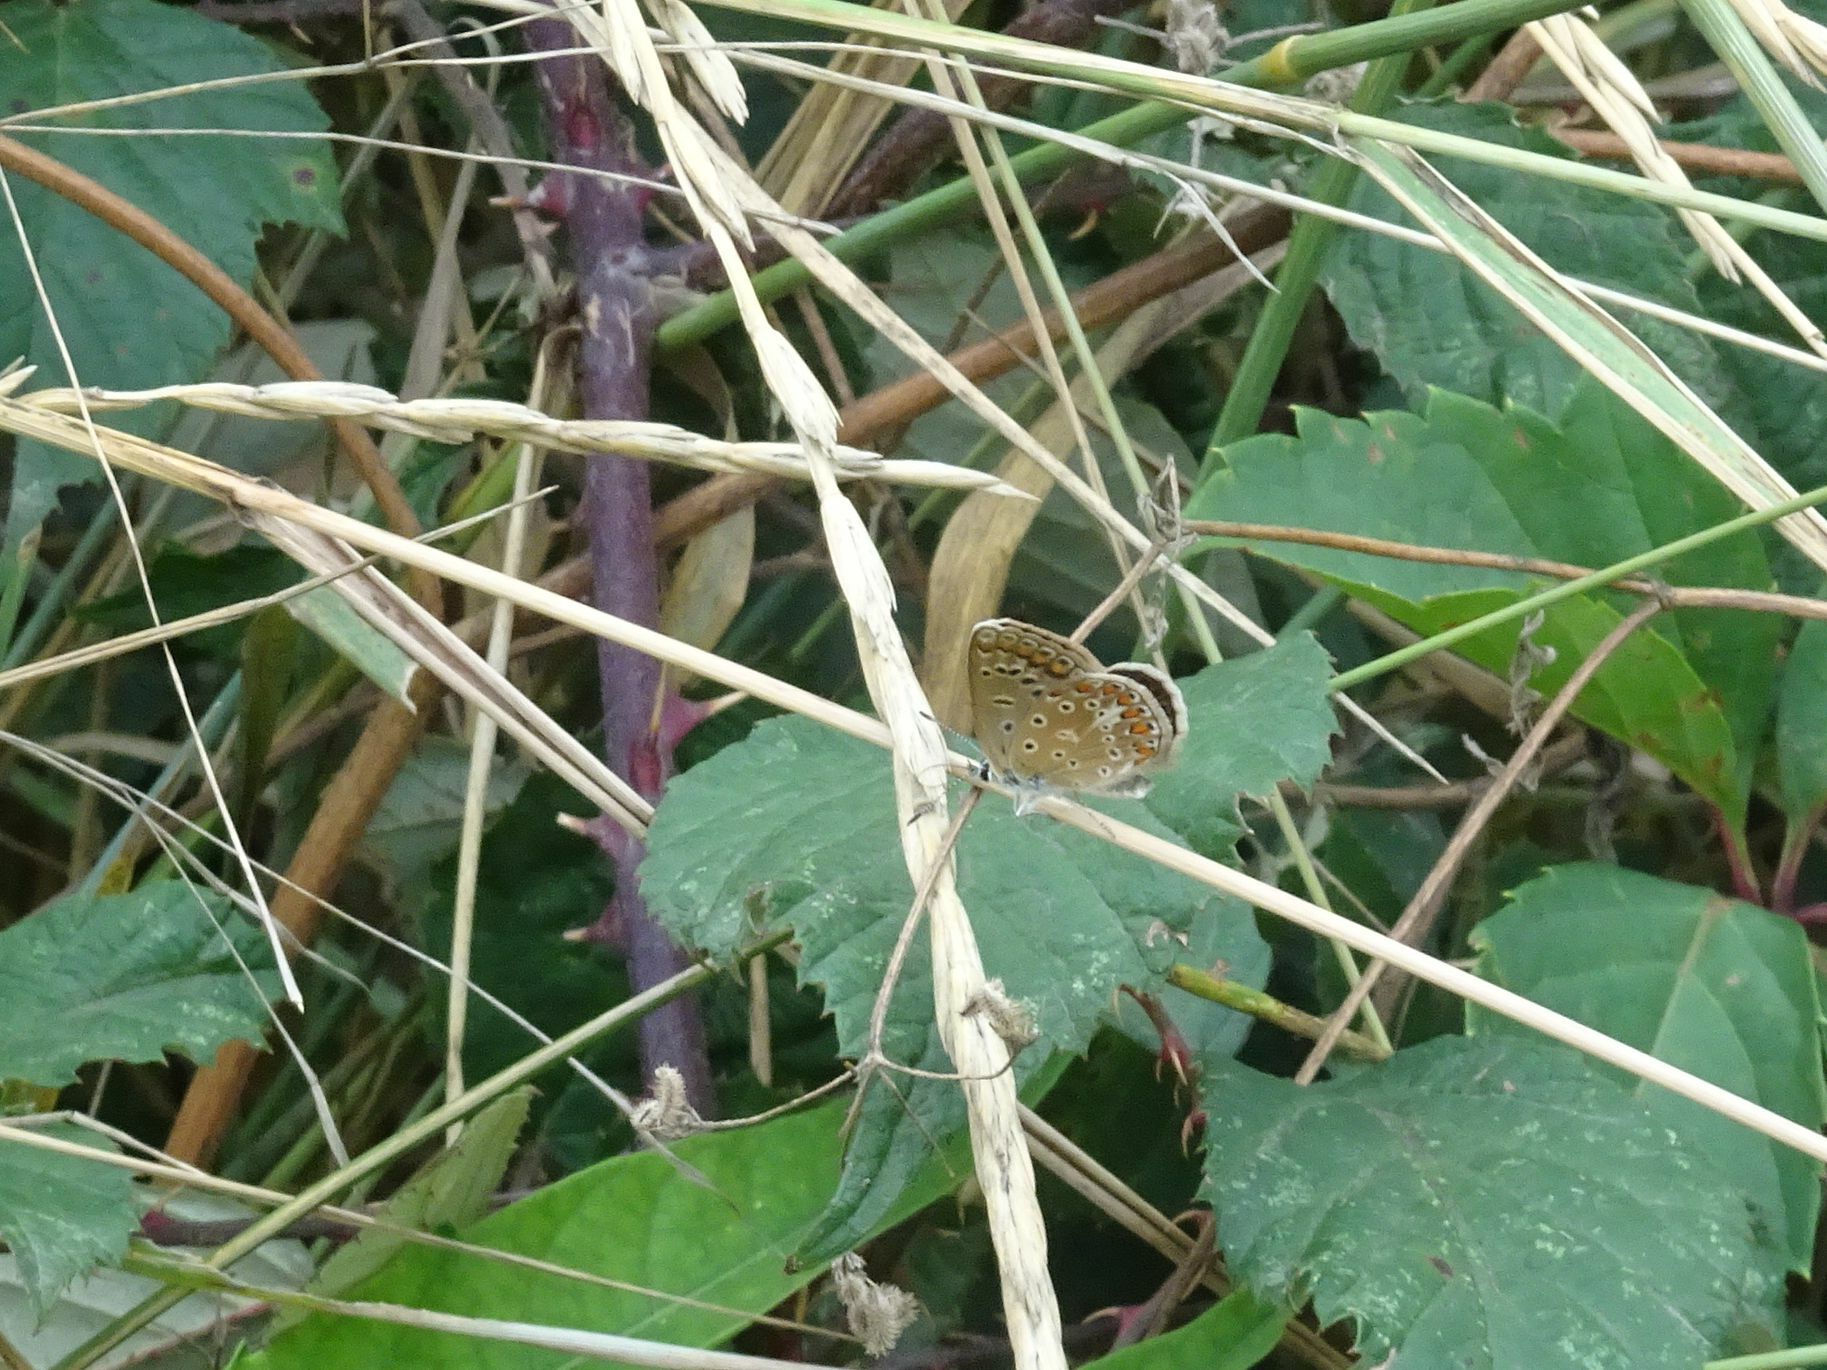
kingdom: Animalia
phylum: Arthropoda
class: Insecta
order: Lepidoptera
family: Lycaenidae
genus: Polyommatus
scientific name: Polyommatus icarus
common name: Common blue
